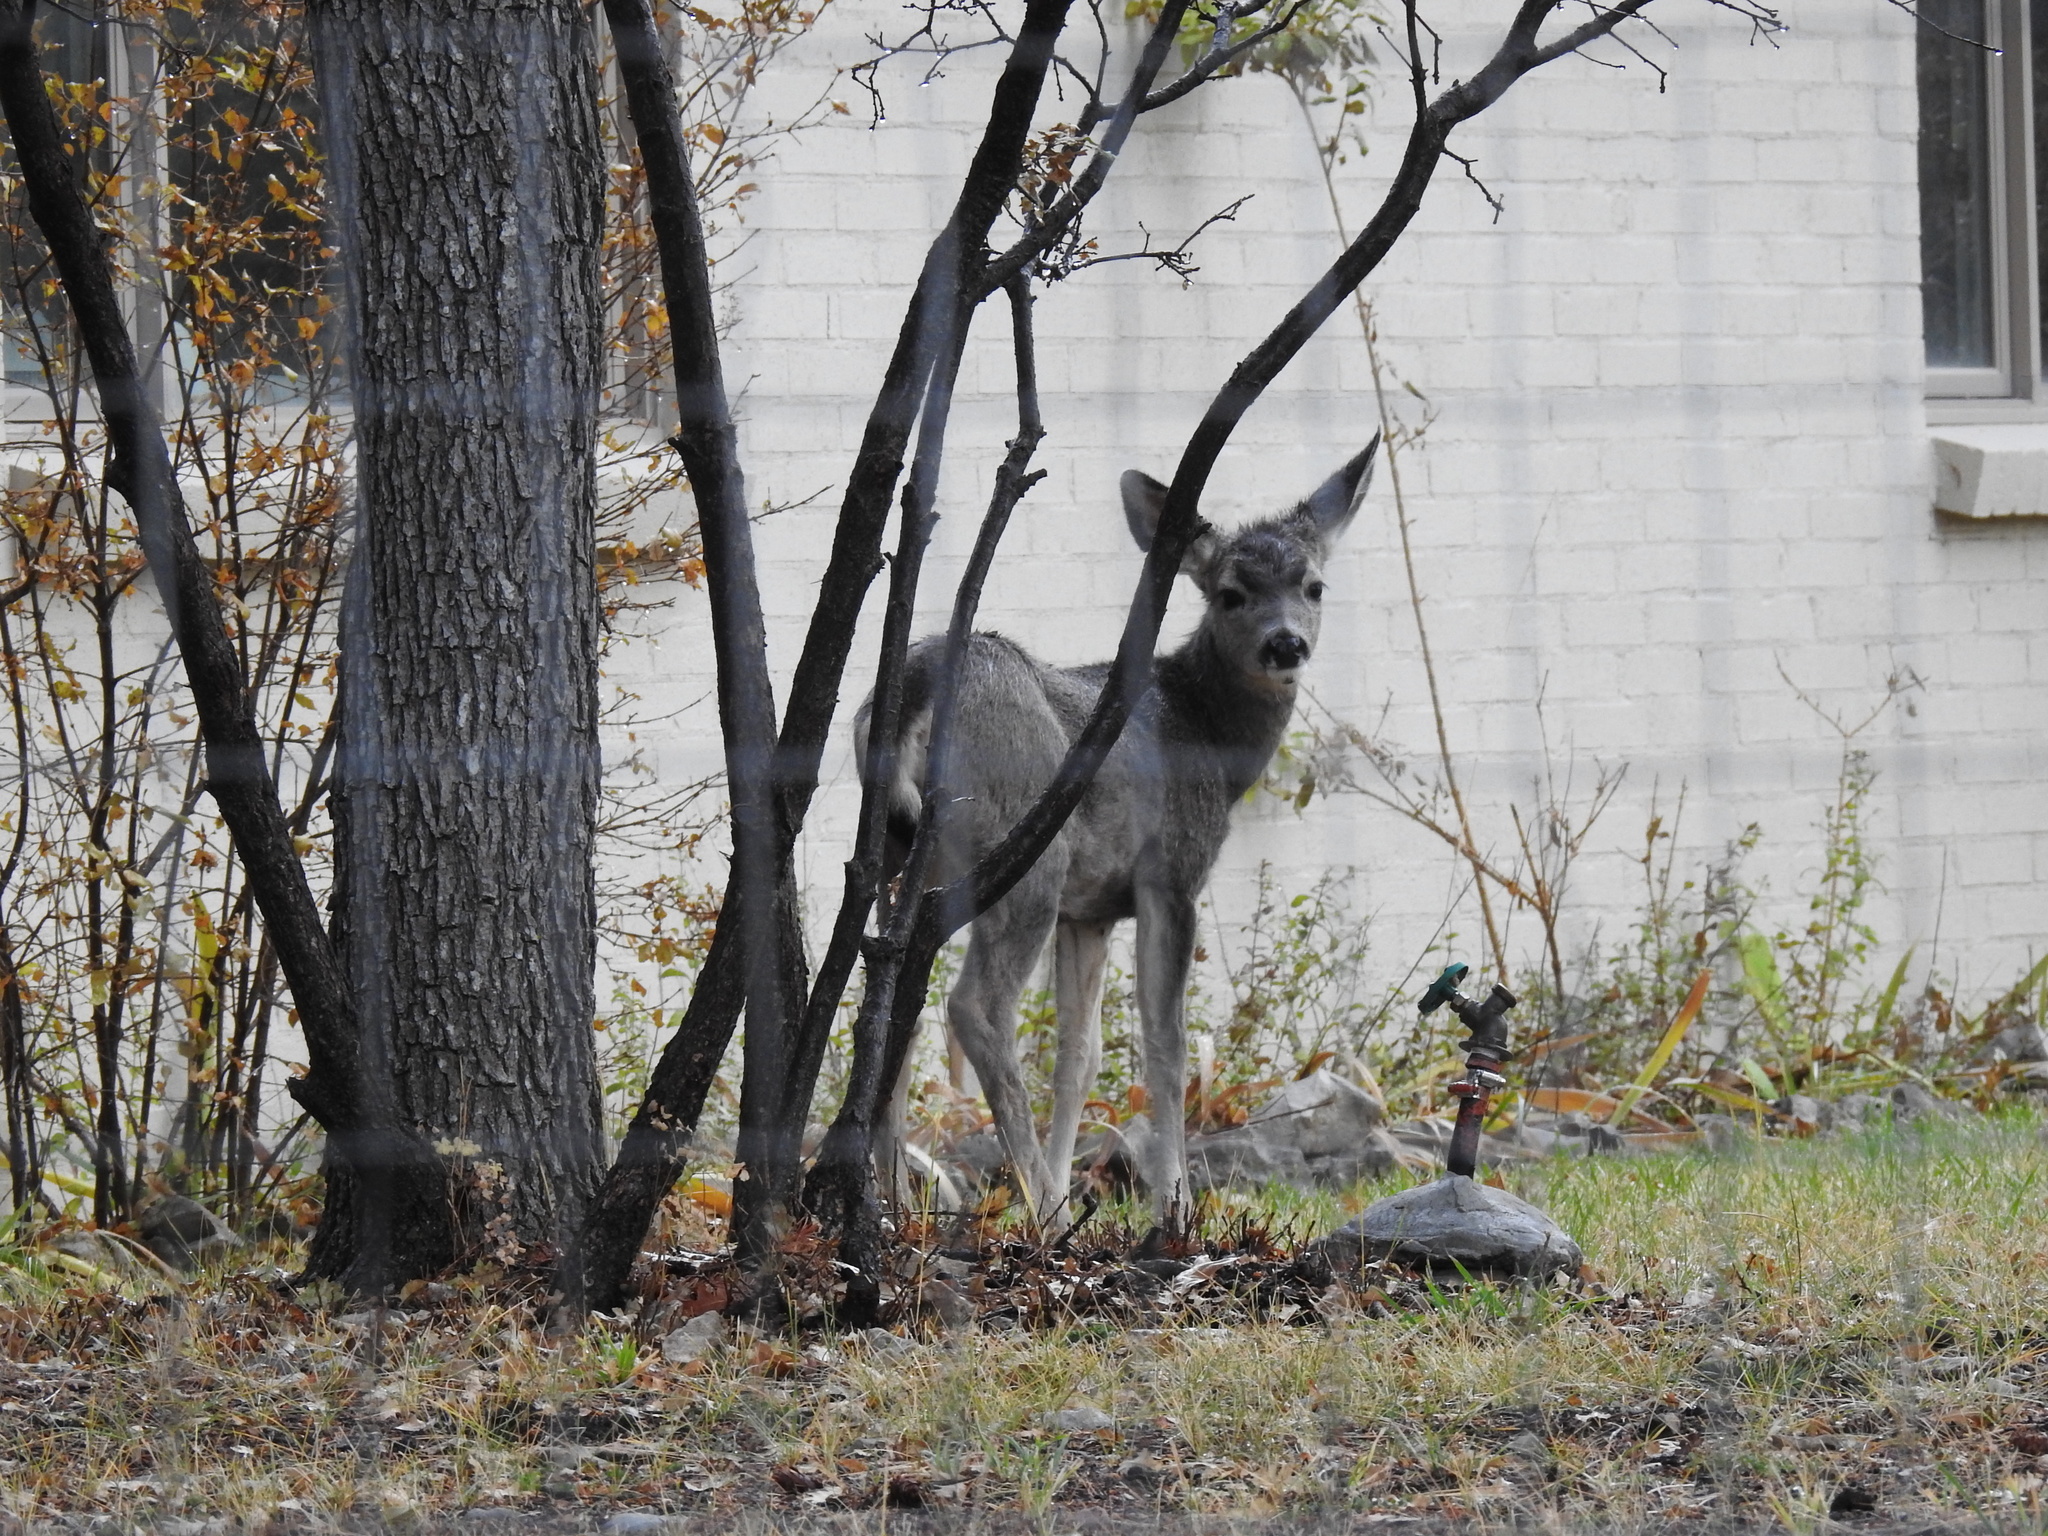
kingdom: Animalia
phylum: Chordata
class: Mammalia
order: Artiodactyla
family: Cervidae
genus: Odocoileus
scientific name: Odocoileus hemionus
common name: Mule deer
